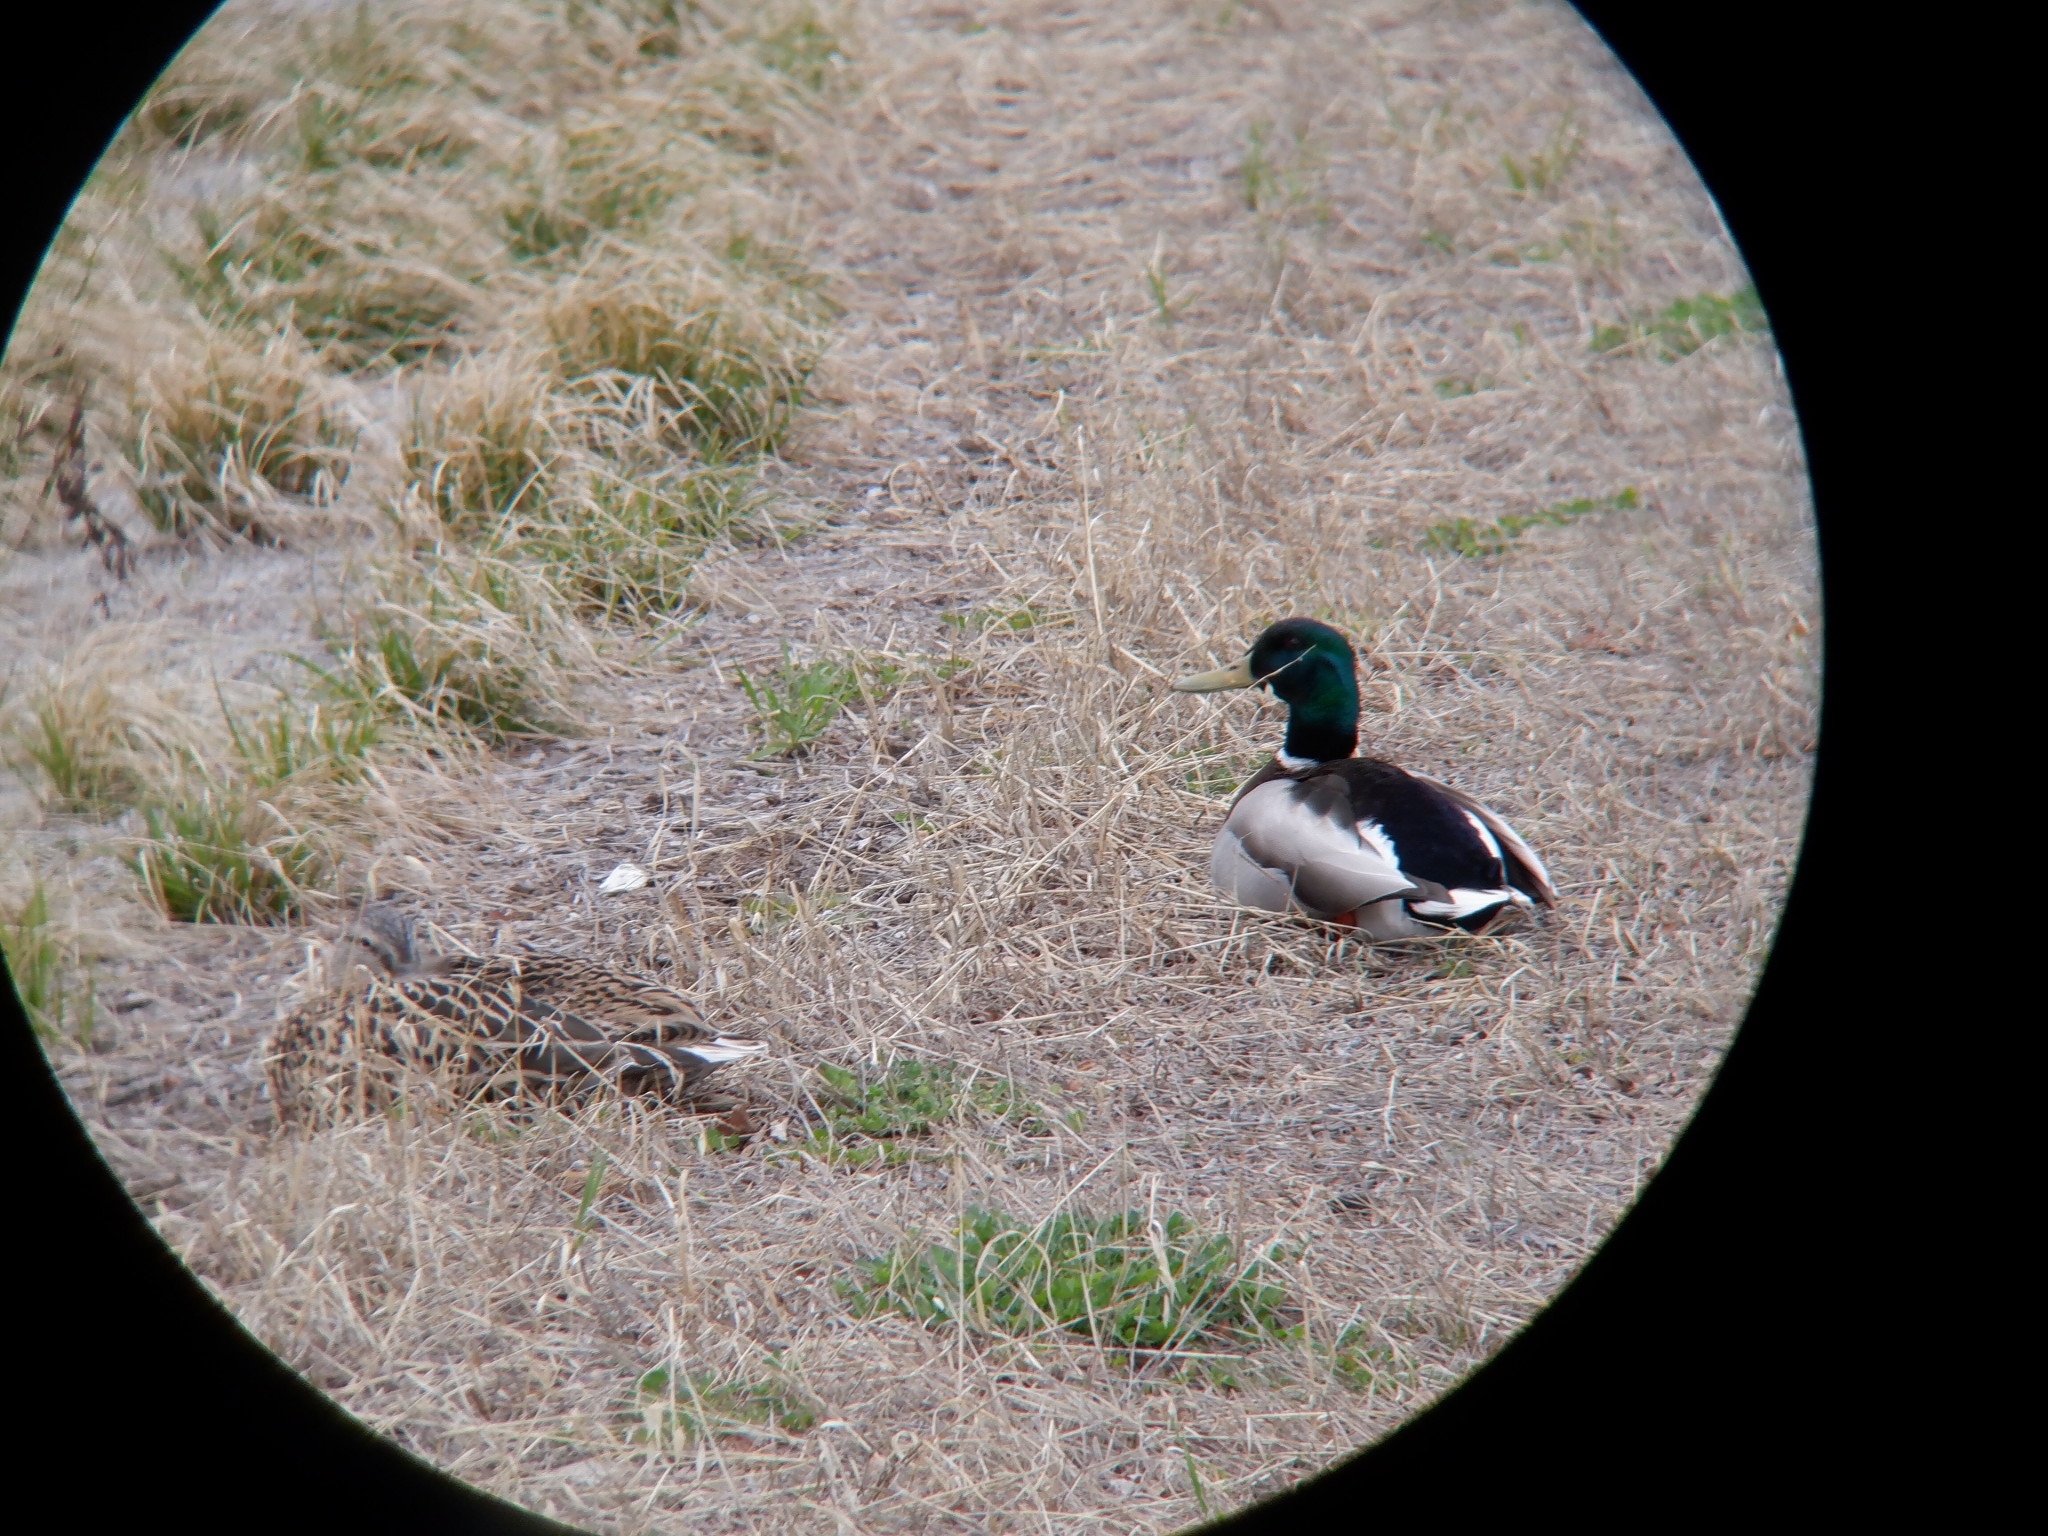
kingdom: Animalia
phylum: Chordata
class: Aves
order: Anseriformes
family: Anatidae
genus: Anas
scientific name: Anas platyrhynchos
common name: Mallard
